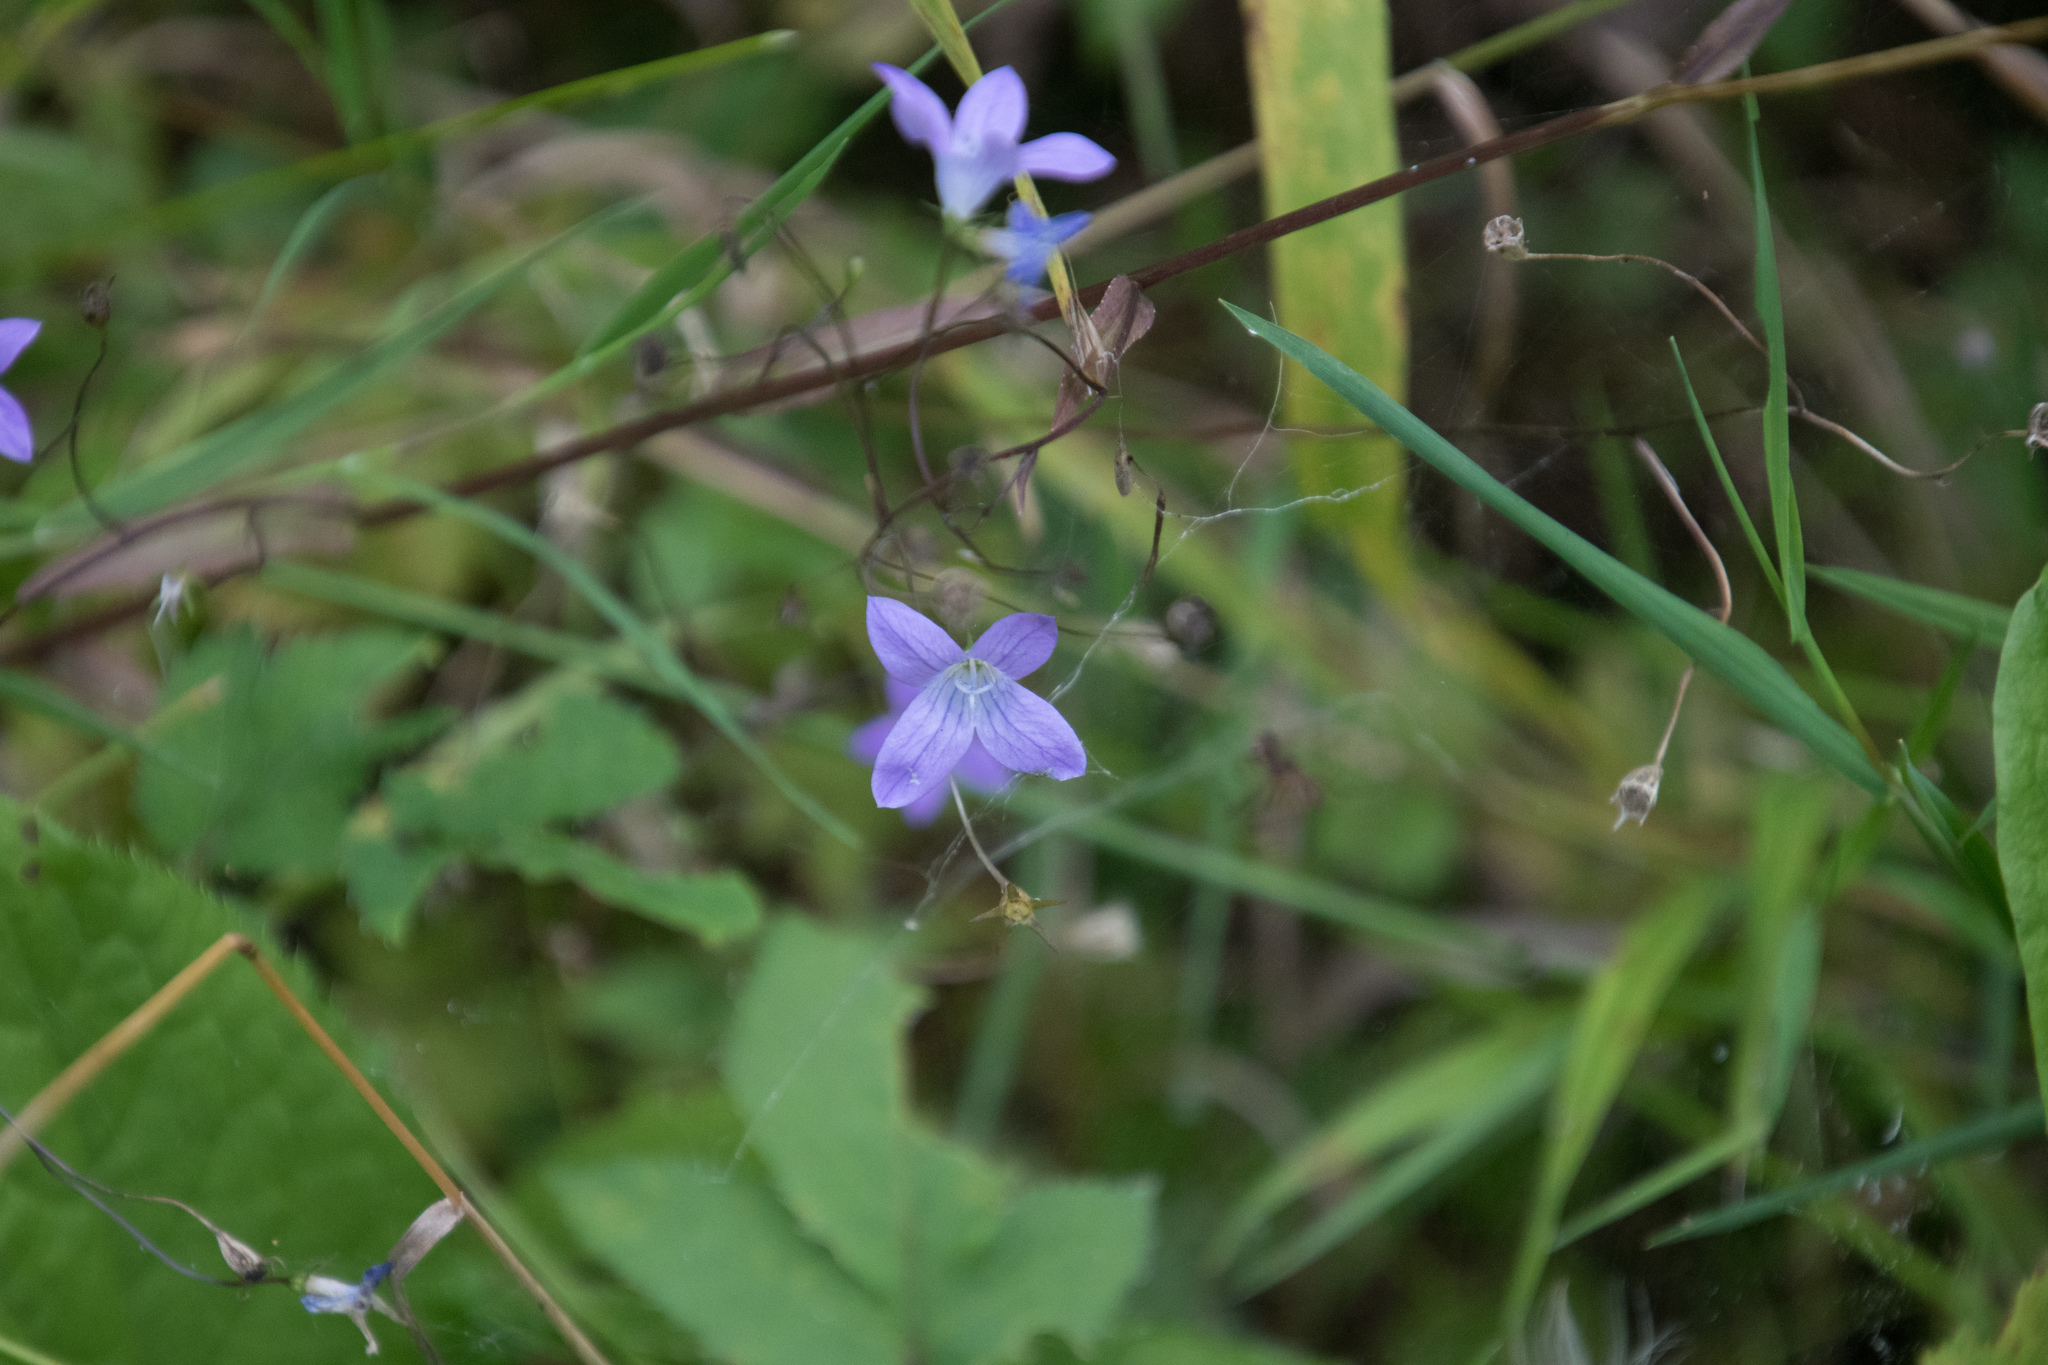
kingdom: Plantae
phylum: Tracheophyta
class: Magnoliopsida
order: Asterales
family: Campanulaceae
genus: Campanula
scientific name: Campanula patula
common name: Spreading bellflower
